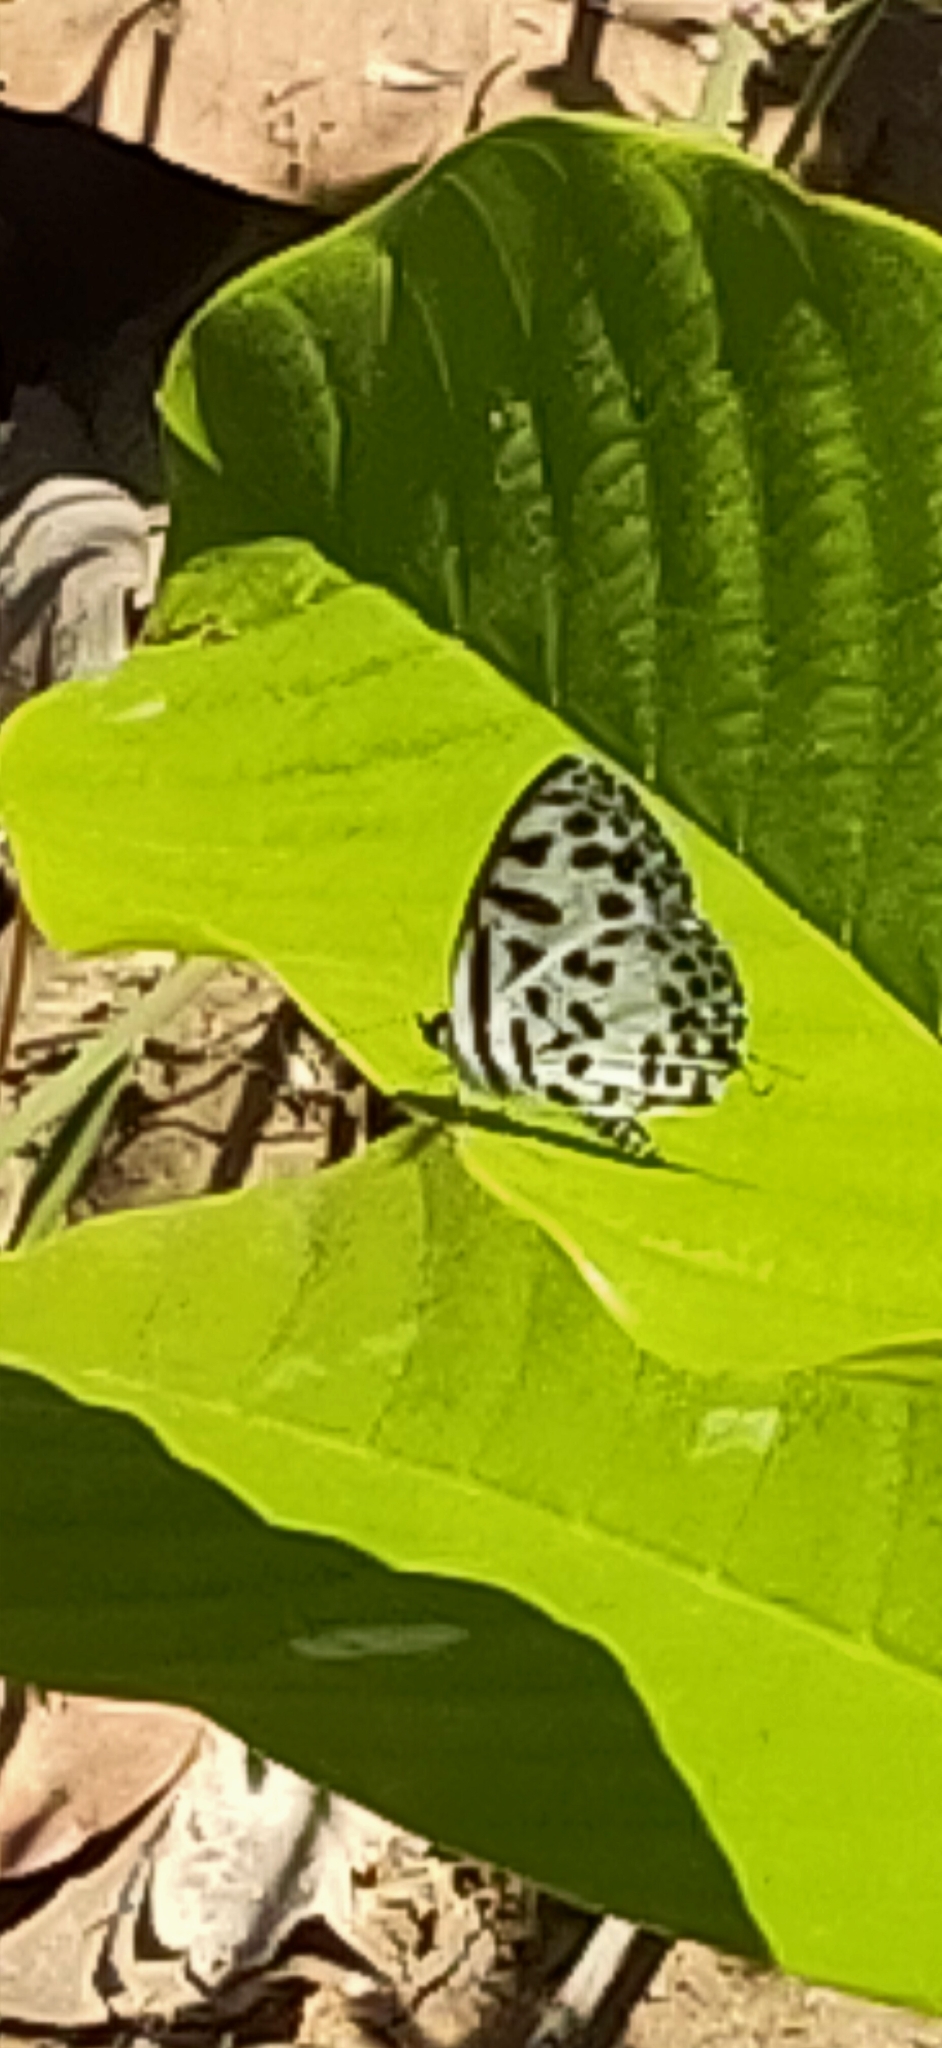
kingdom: Animalia
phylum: Arthropoda
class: Insecta
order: Lepidoptera
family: Lycaenidae
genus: Castalius
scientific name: Castalius rosimon
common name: Common pierrot
